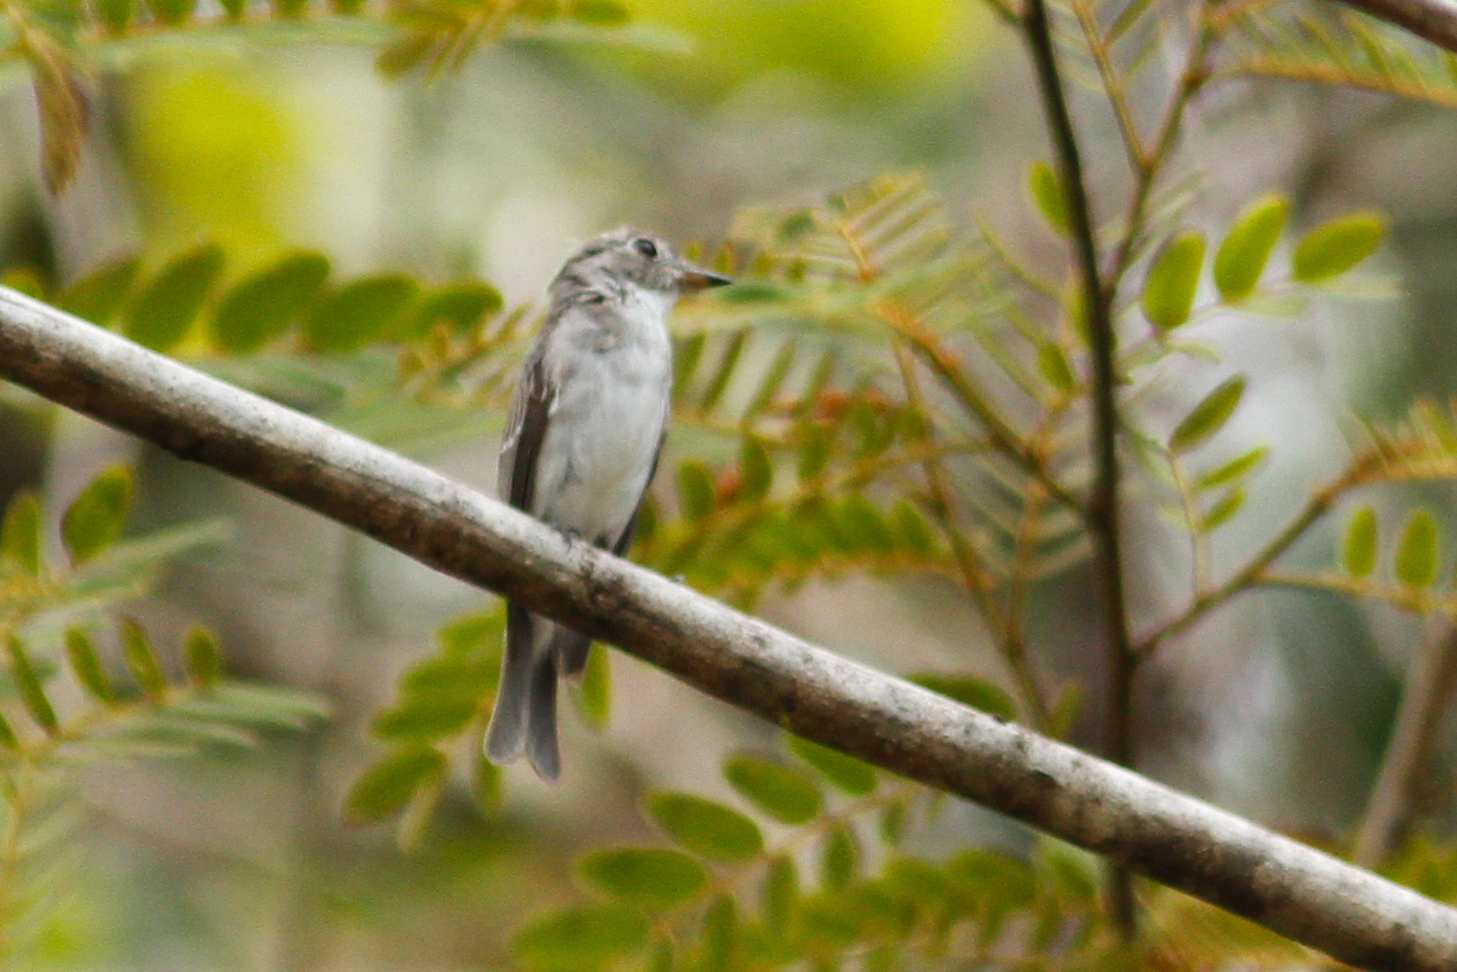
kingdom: Animalia
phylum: Chordata
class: Aves
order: Passeriformes
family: Muscicapidae
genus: Muscicapa
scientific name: Muscicapa latirostris
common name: Asian brown flycatcher
